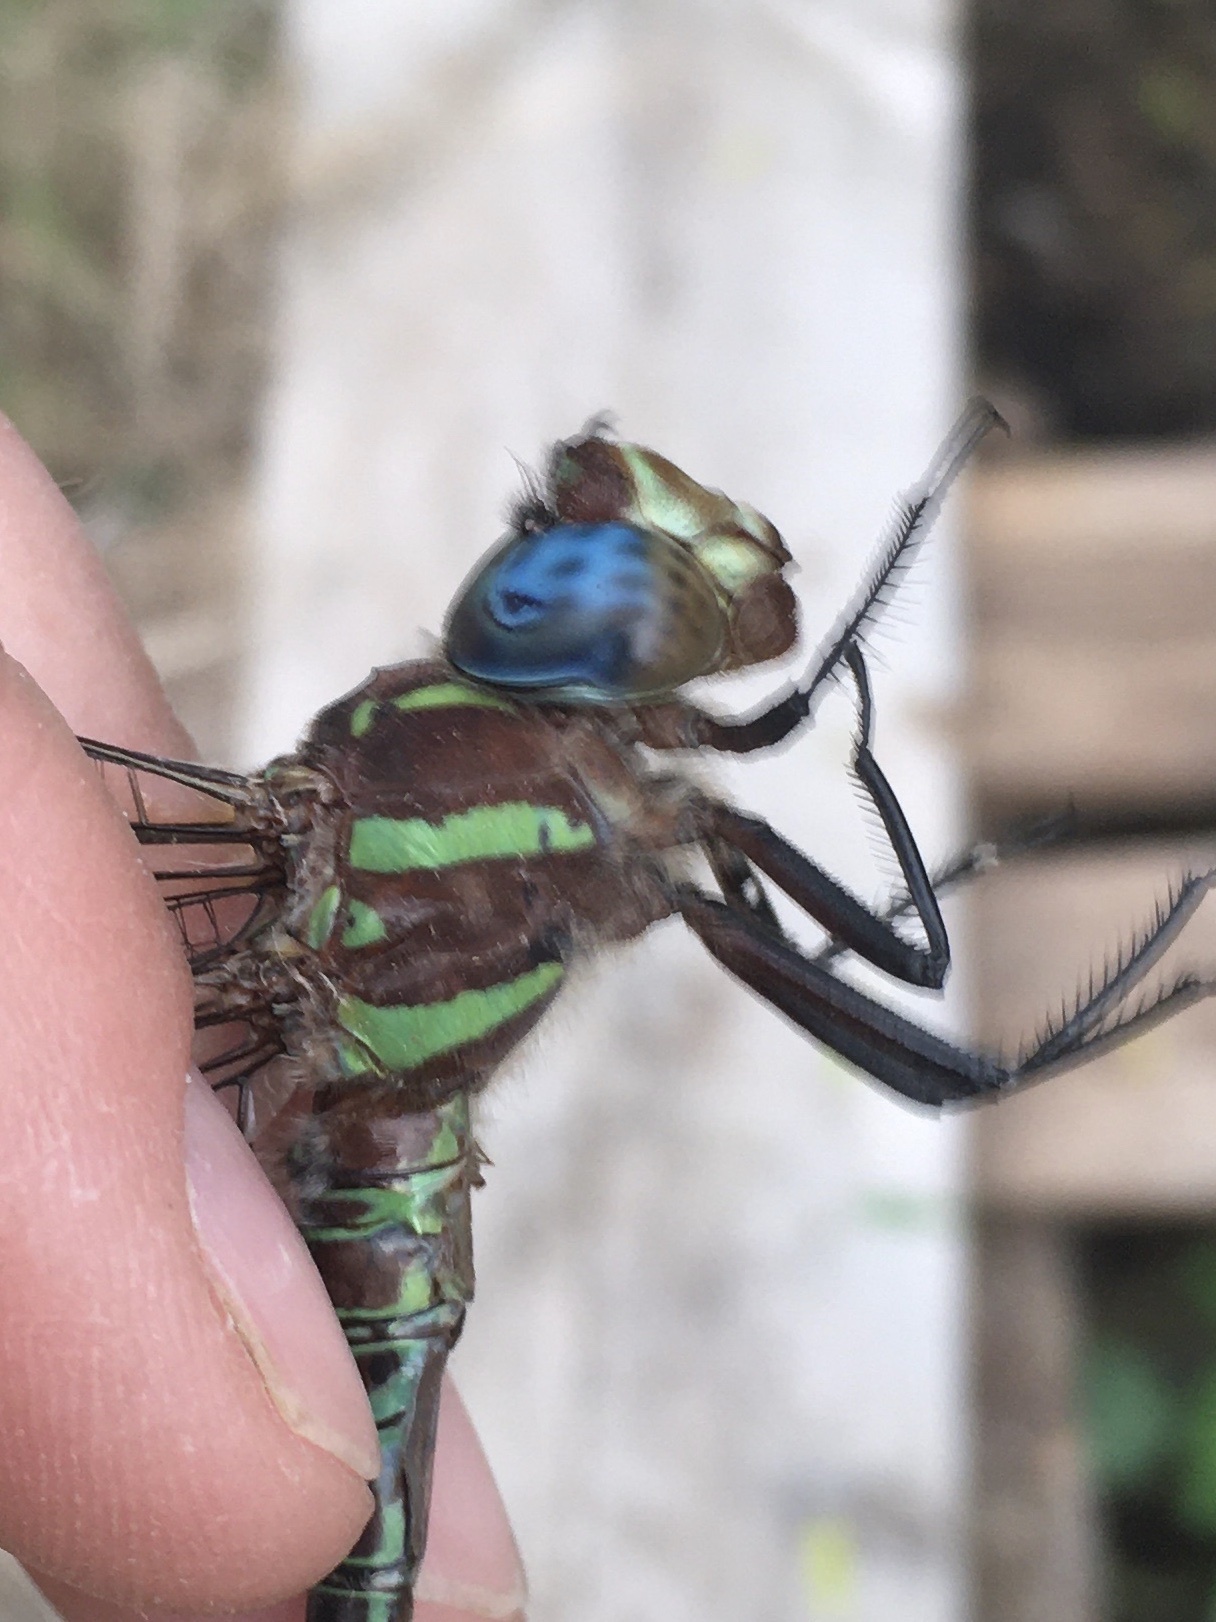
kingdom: Animalia
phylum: Arthropoda
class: Insecta
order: Odonata
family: Aeshnidae
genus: Epiaeschna
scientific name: Epiaeschna heros
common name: Swamp darner
